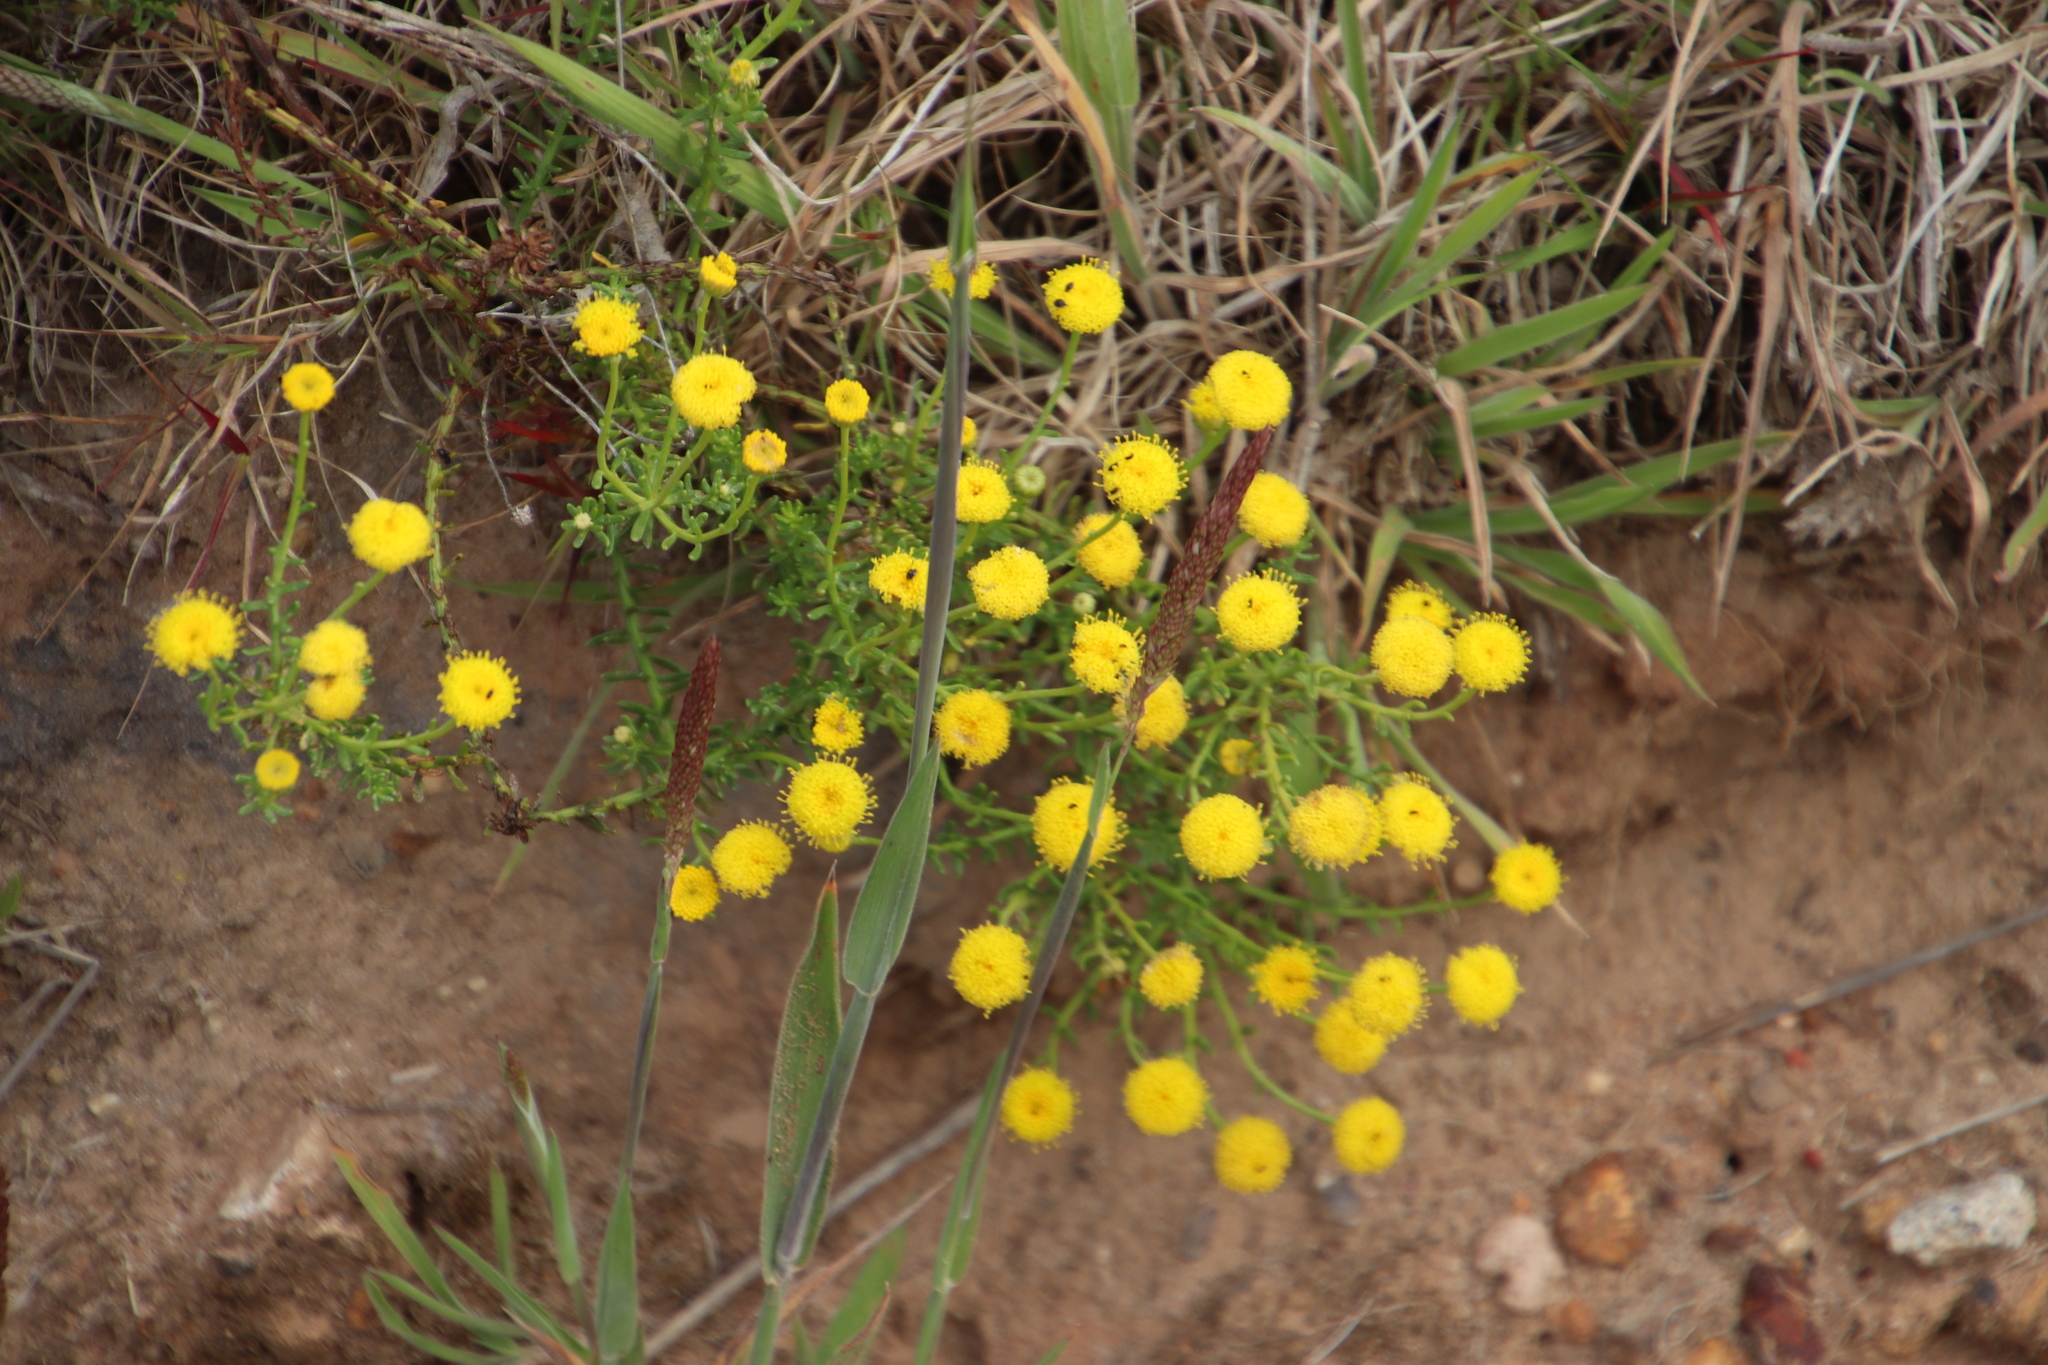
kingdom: Plantae
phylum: Tracheophyta
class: Magnoliopsida
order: Asterales
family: Asteraceae
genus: Chrysocoma
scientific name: Chrysocoma cernua
